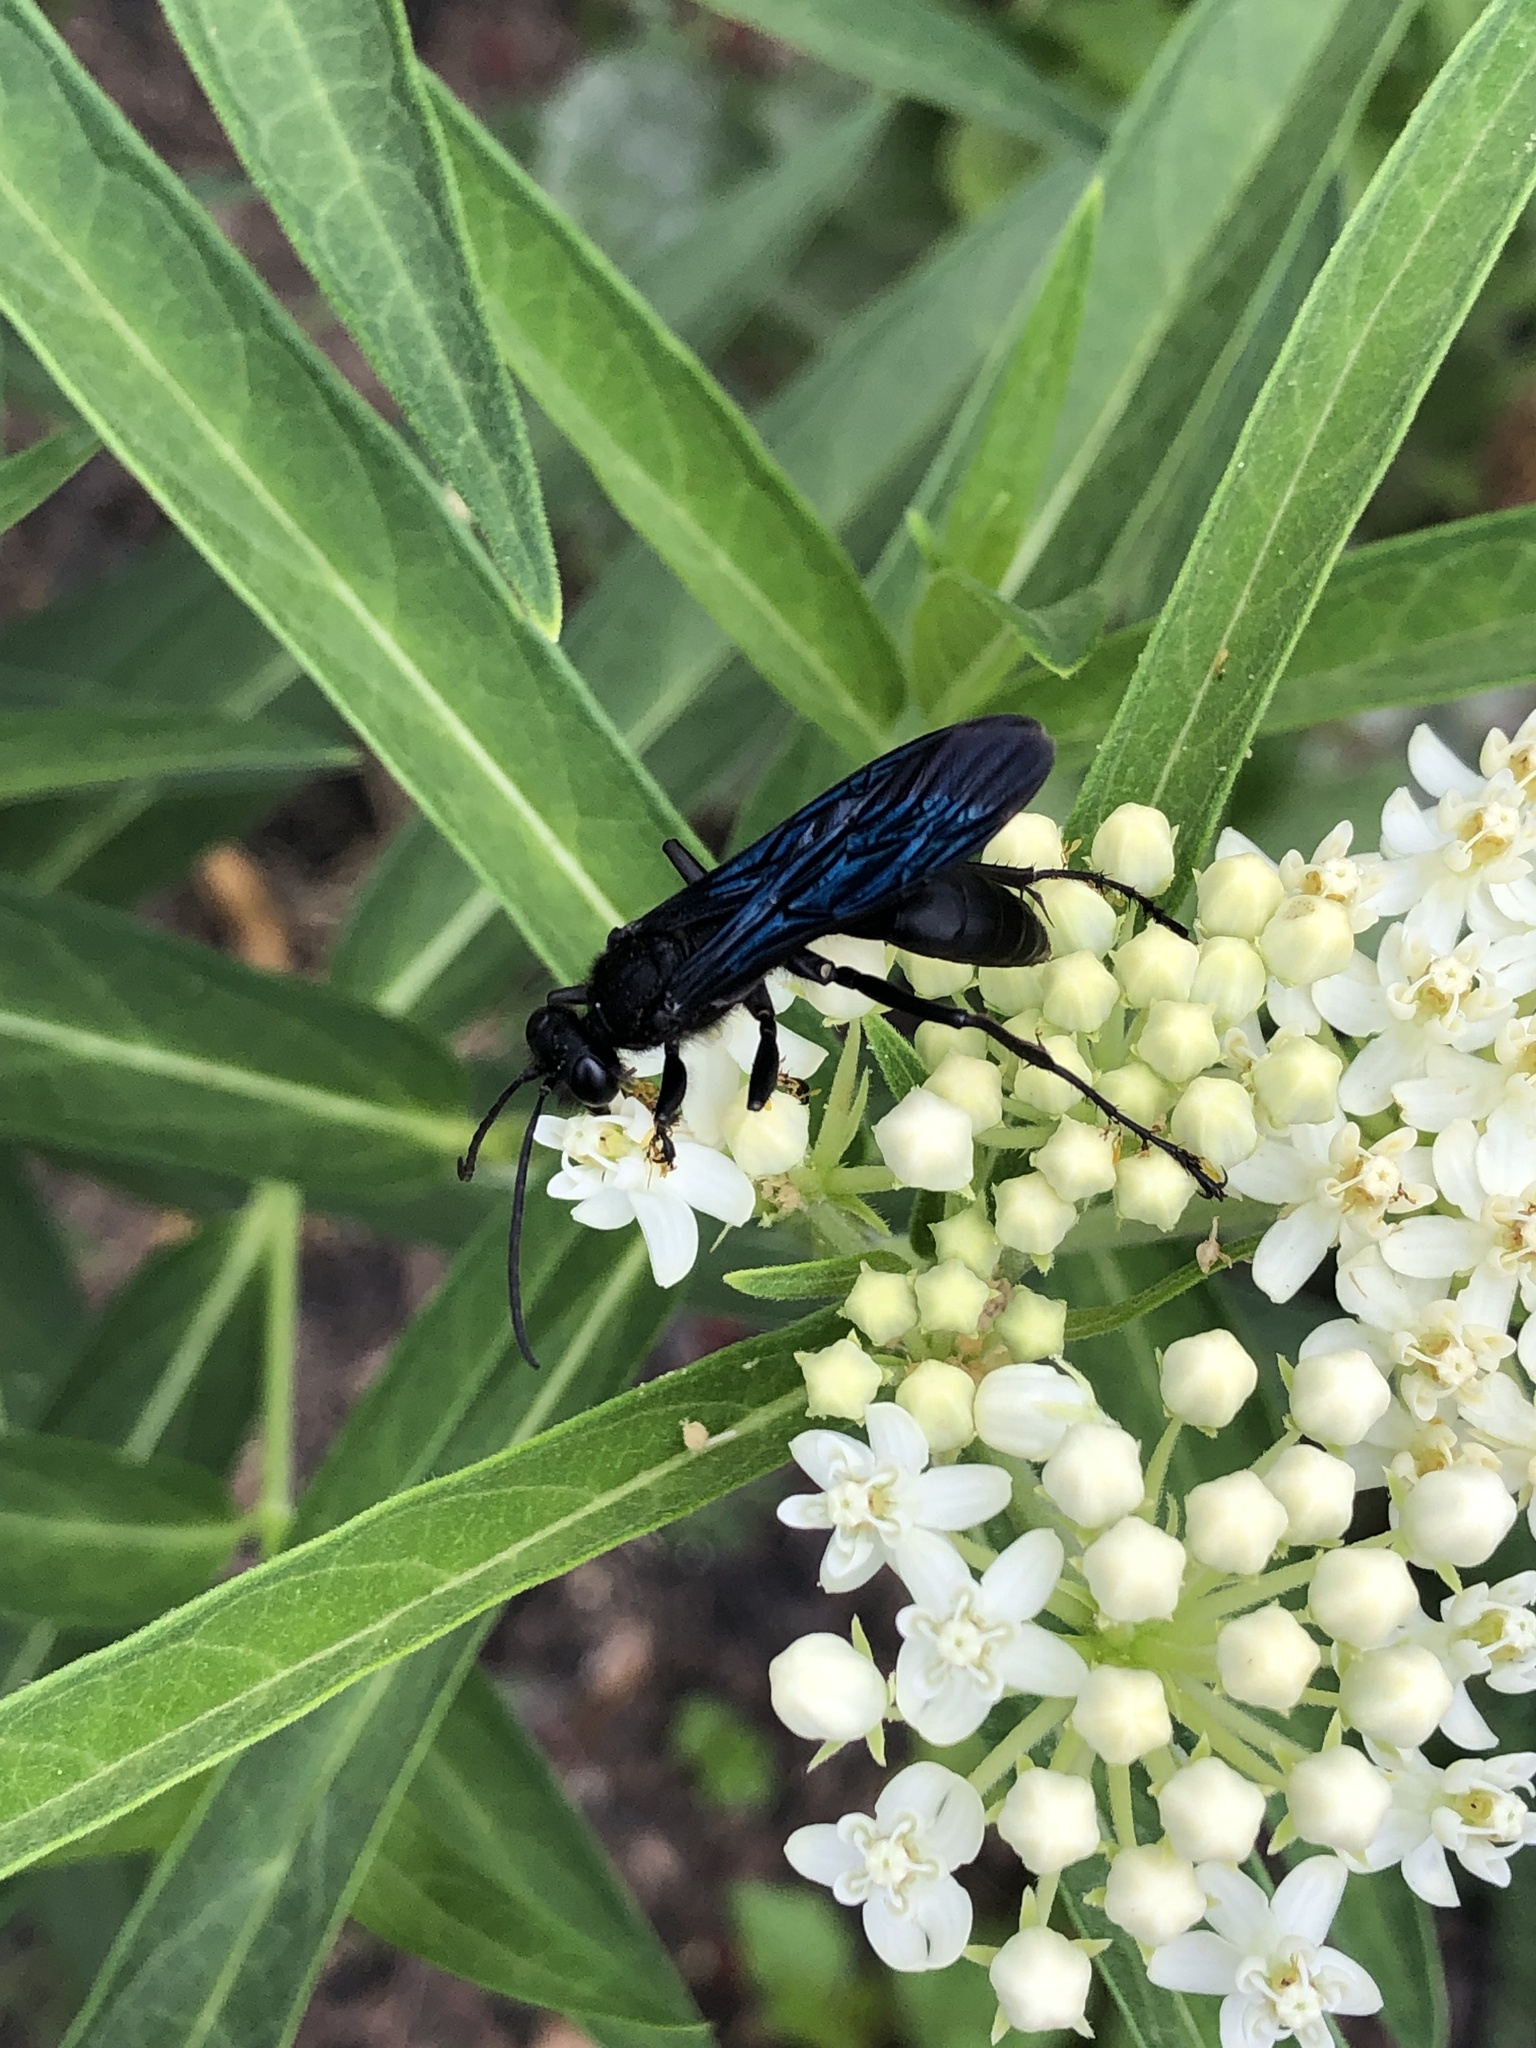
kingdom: Animalia
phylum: Arthropoda
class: Insecta
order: Hymenoptera
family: Sphecidae
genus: Sphex
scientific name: Sphex pensylvanicus
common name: Great black digger wasp
